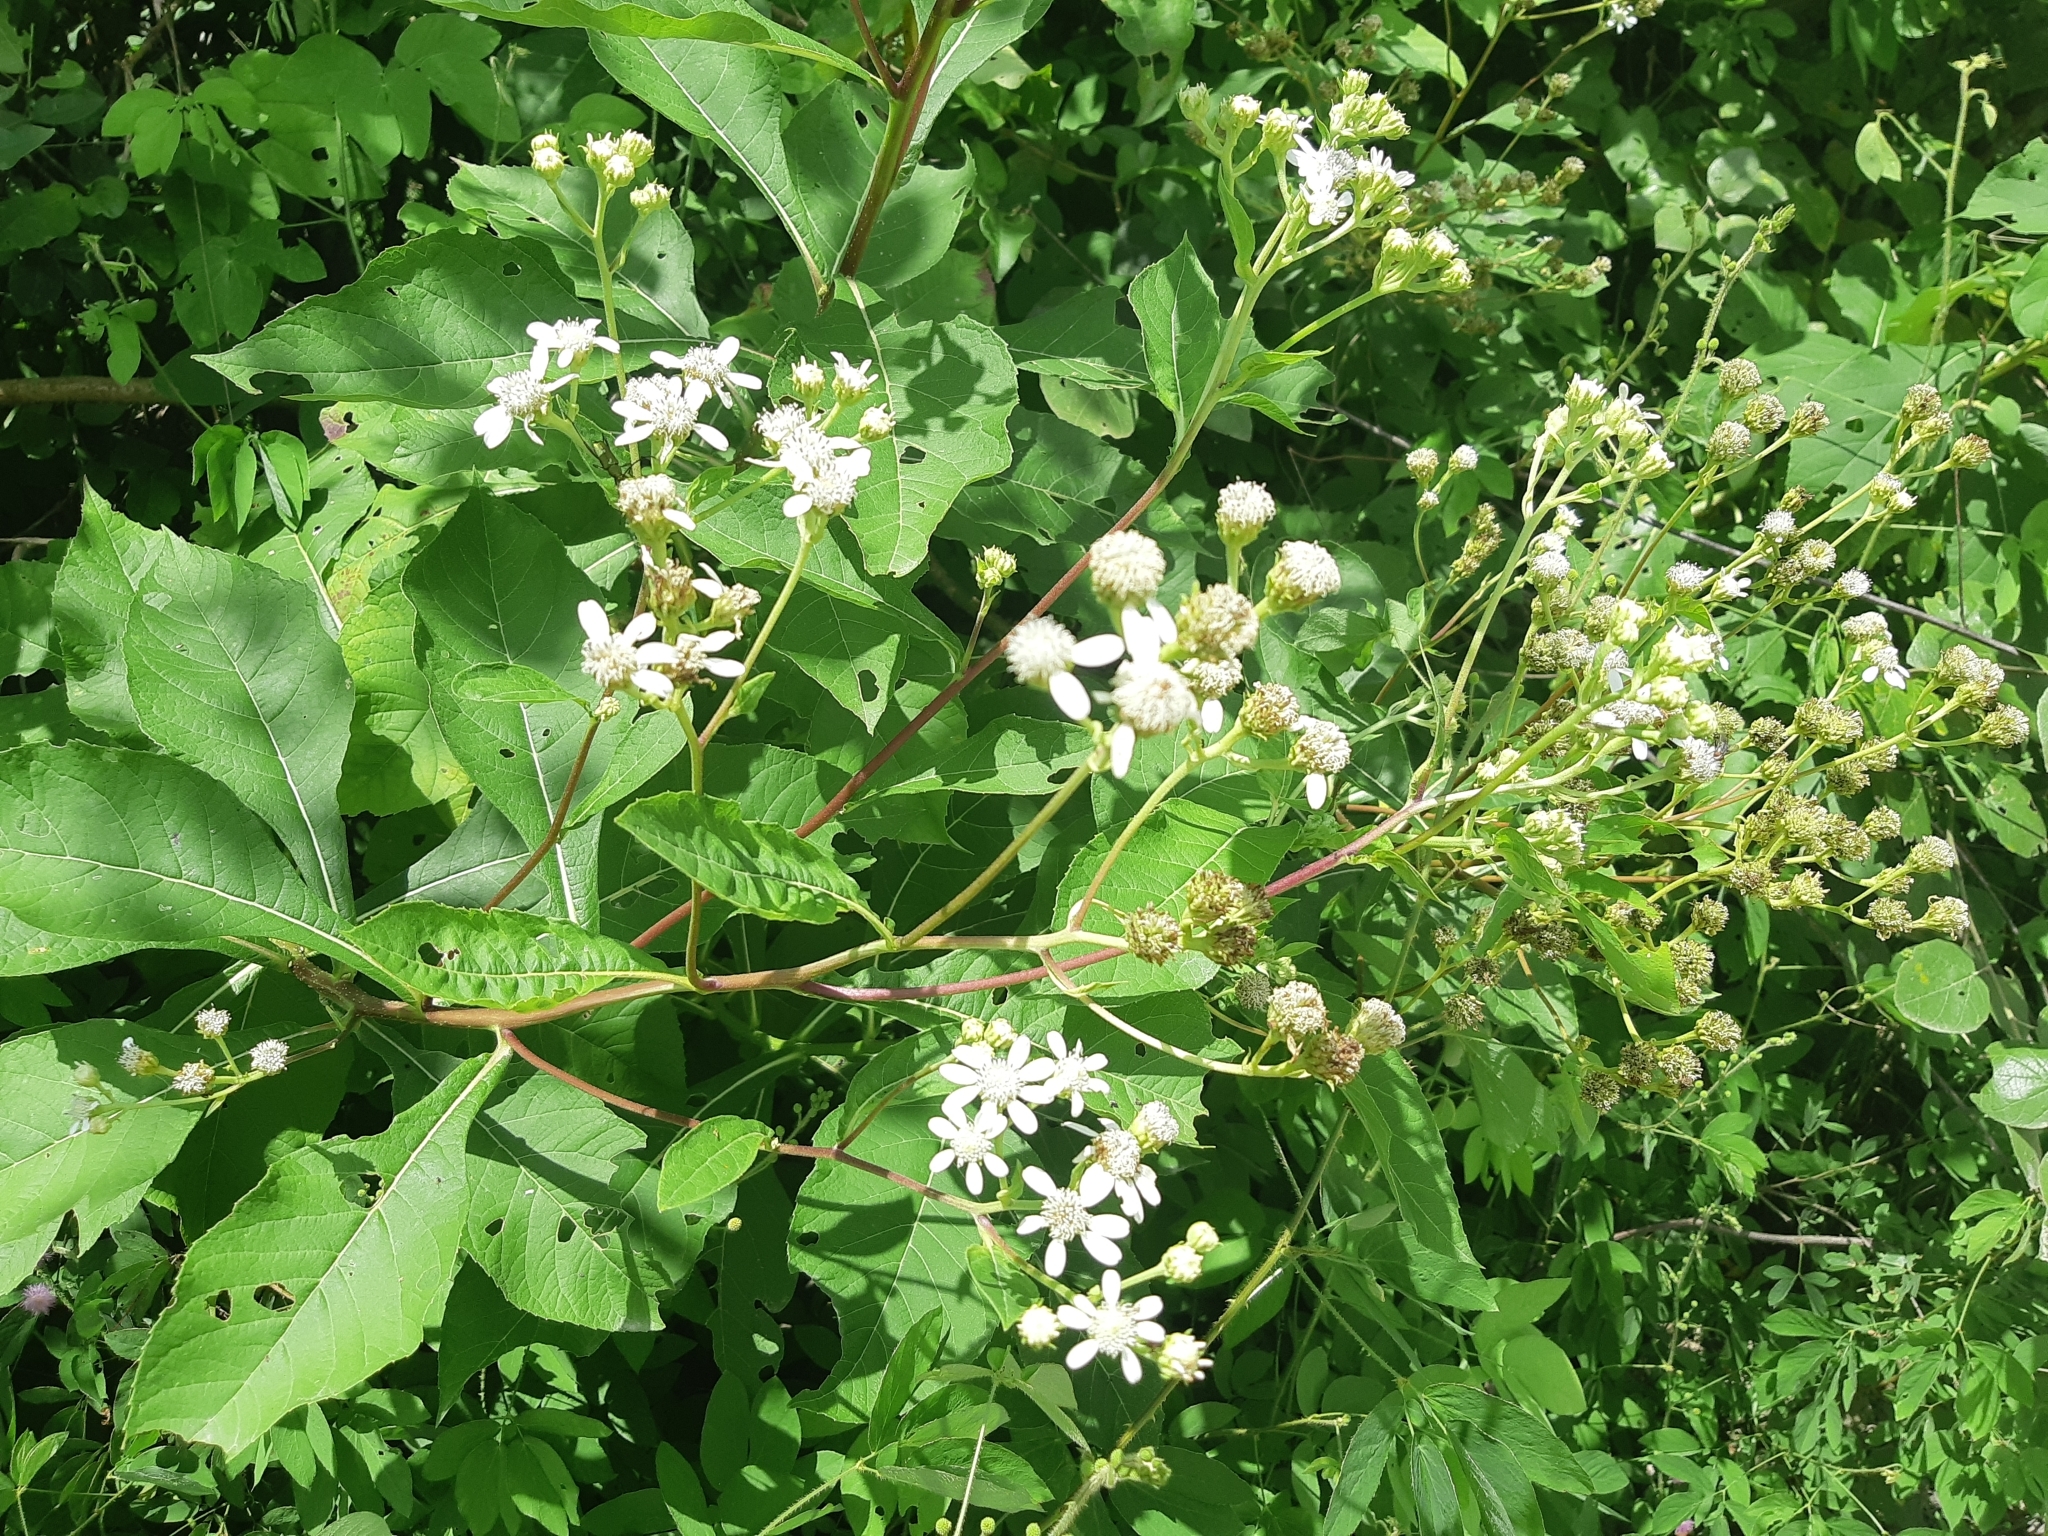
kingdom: Plantae
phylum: Tracheophyta
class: Magnoliopsida
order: Asterales
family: Asteraceae
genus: Verbesina
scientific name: Verbesina eggersii
